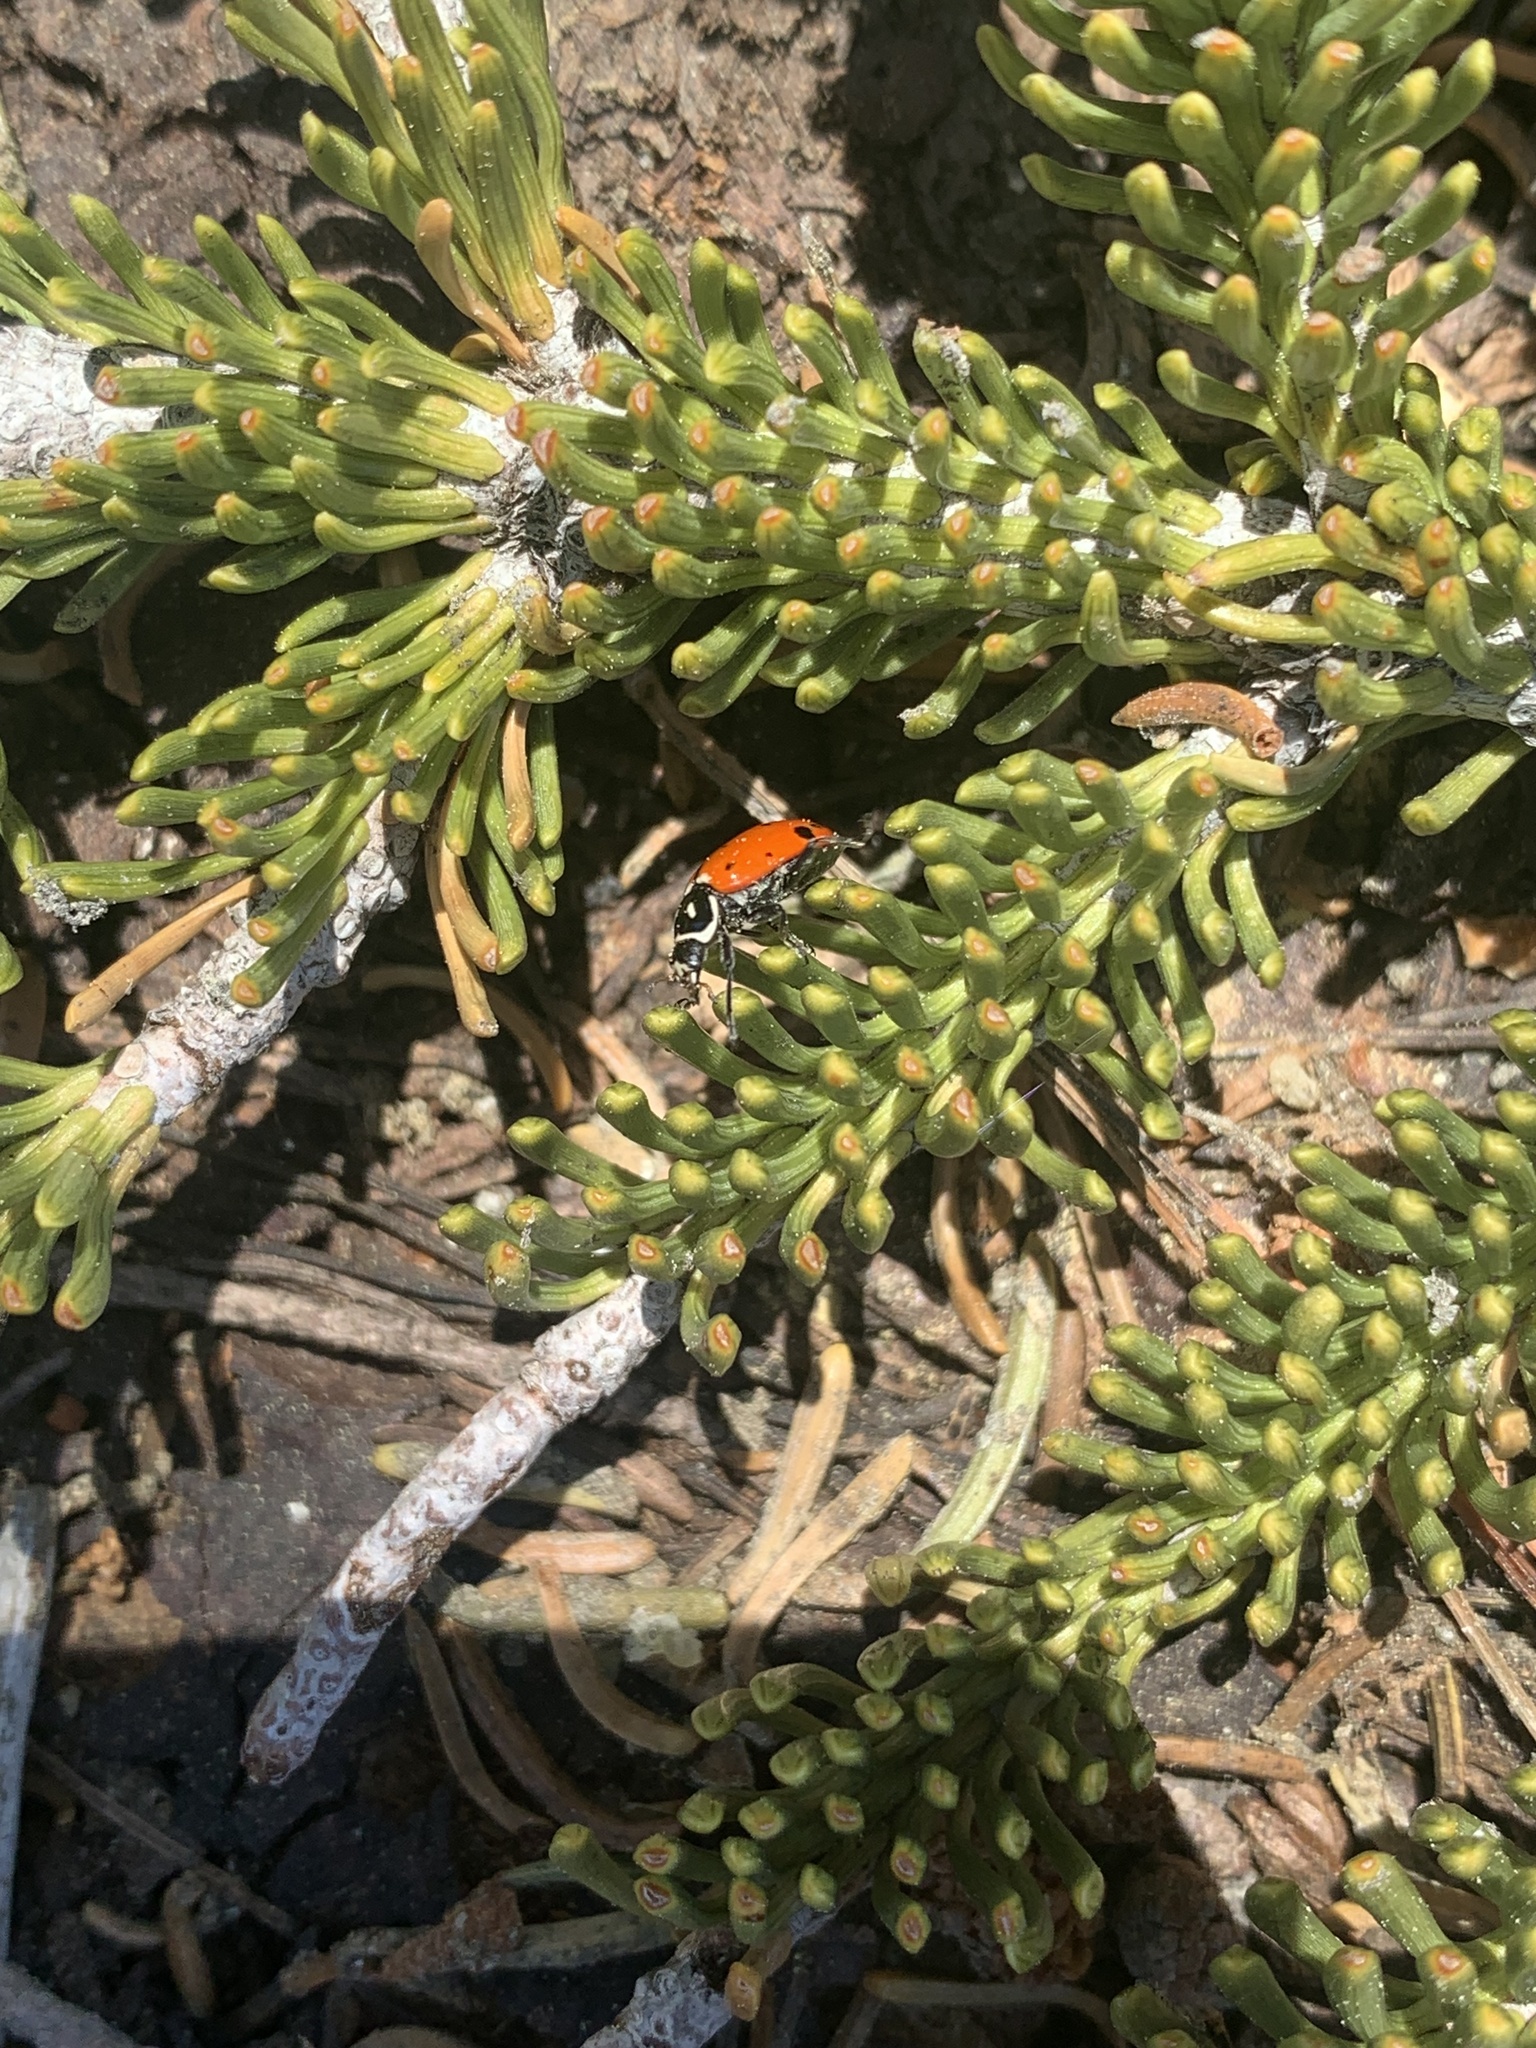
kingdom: Animalia
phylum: Arthropoda
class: Insecta
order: Coleoptera
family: Coccinellidae
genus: Hippodamia
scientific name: Hippodamia convergens
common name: Convergent lady beetle
